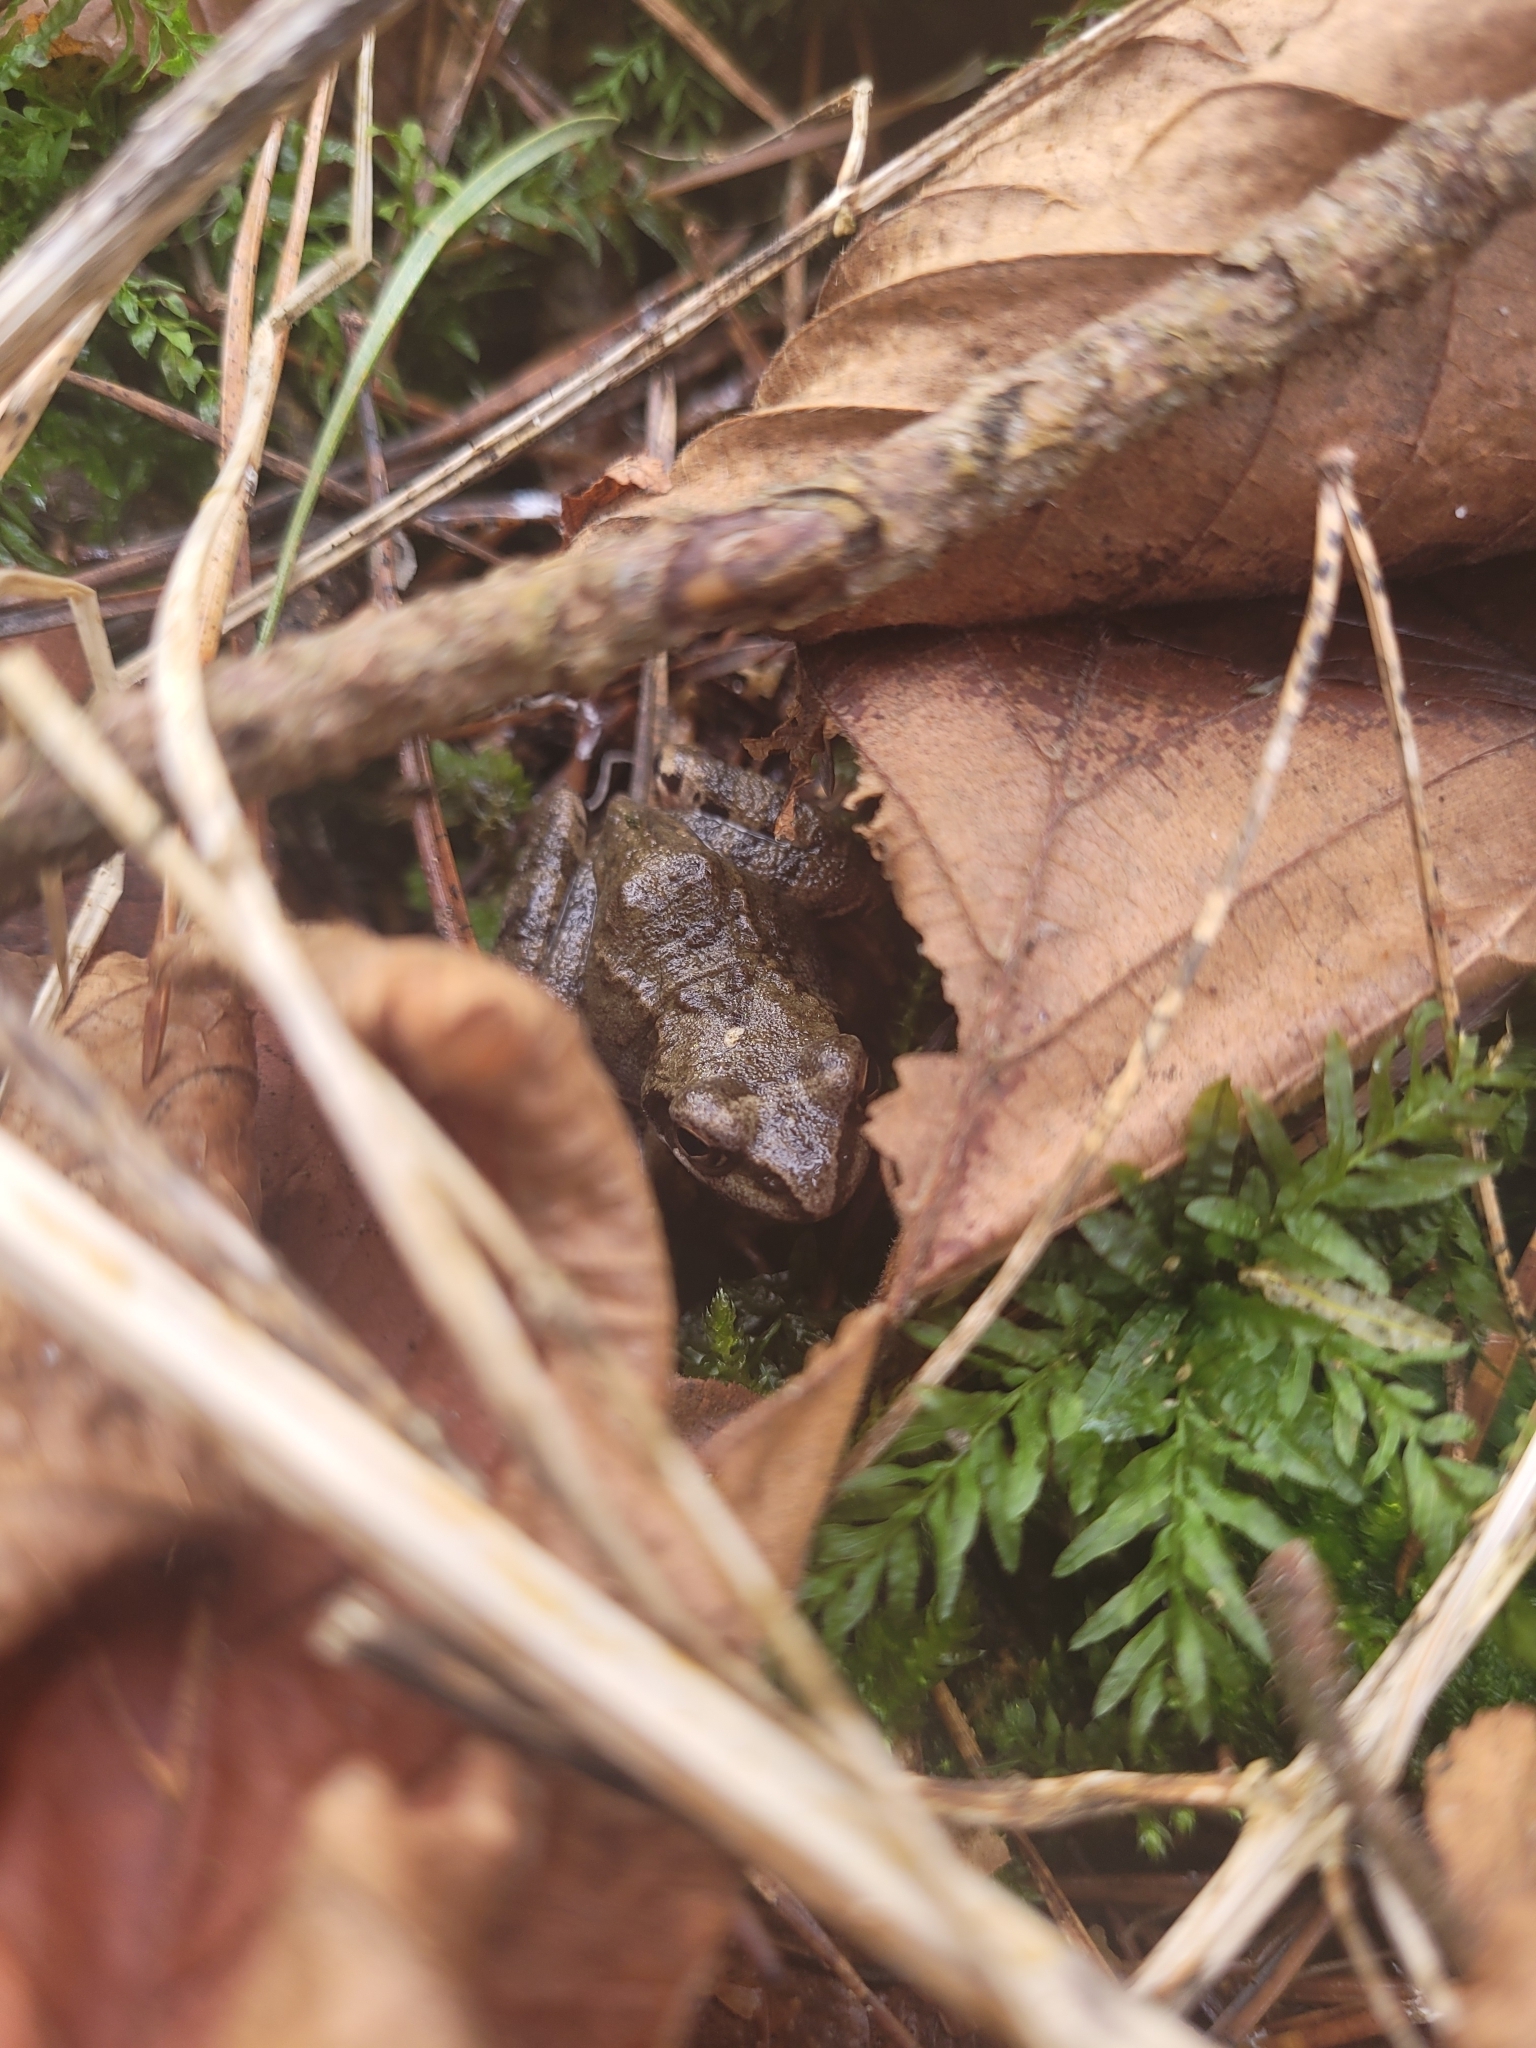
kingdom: Animalia
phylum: Chordata
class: Amphibia
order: Anura
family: Ranidae
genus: Rana
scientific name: Rana temporaria
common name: Common frog
